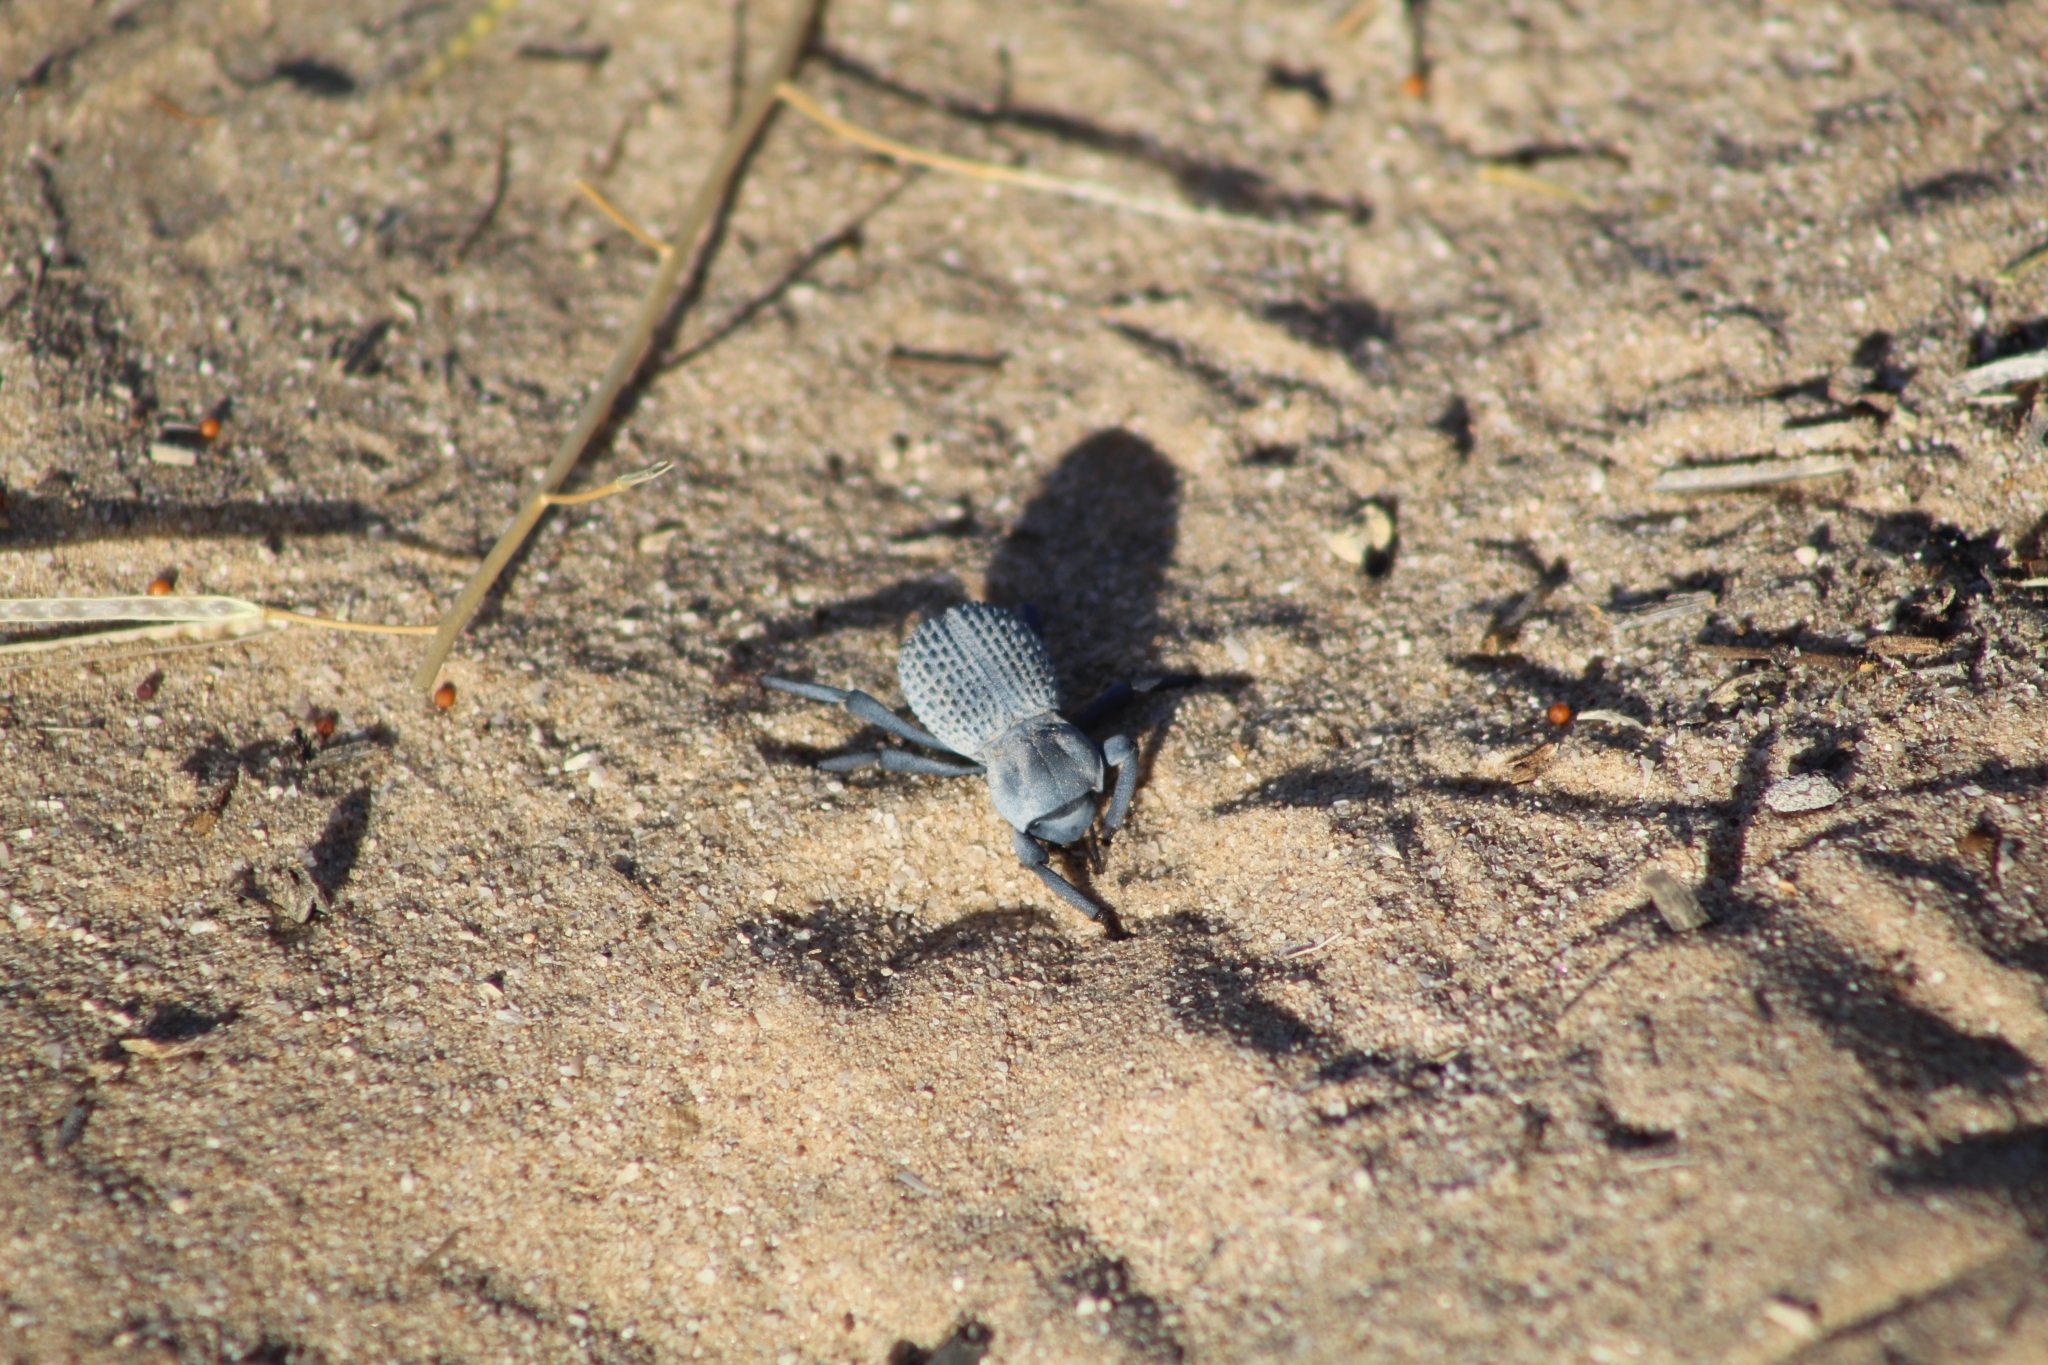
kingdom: Animalia
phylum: Arthropoda
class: Insecta
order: Coleoptera
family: Tenebrionidae
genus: Asbolus
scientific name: Asbolus verrucosus
